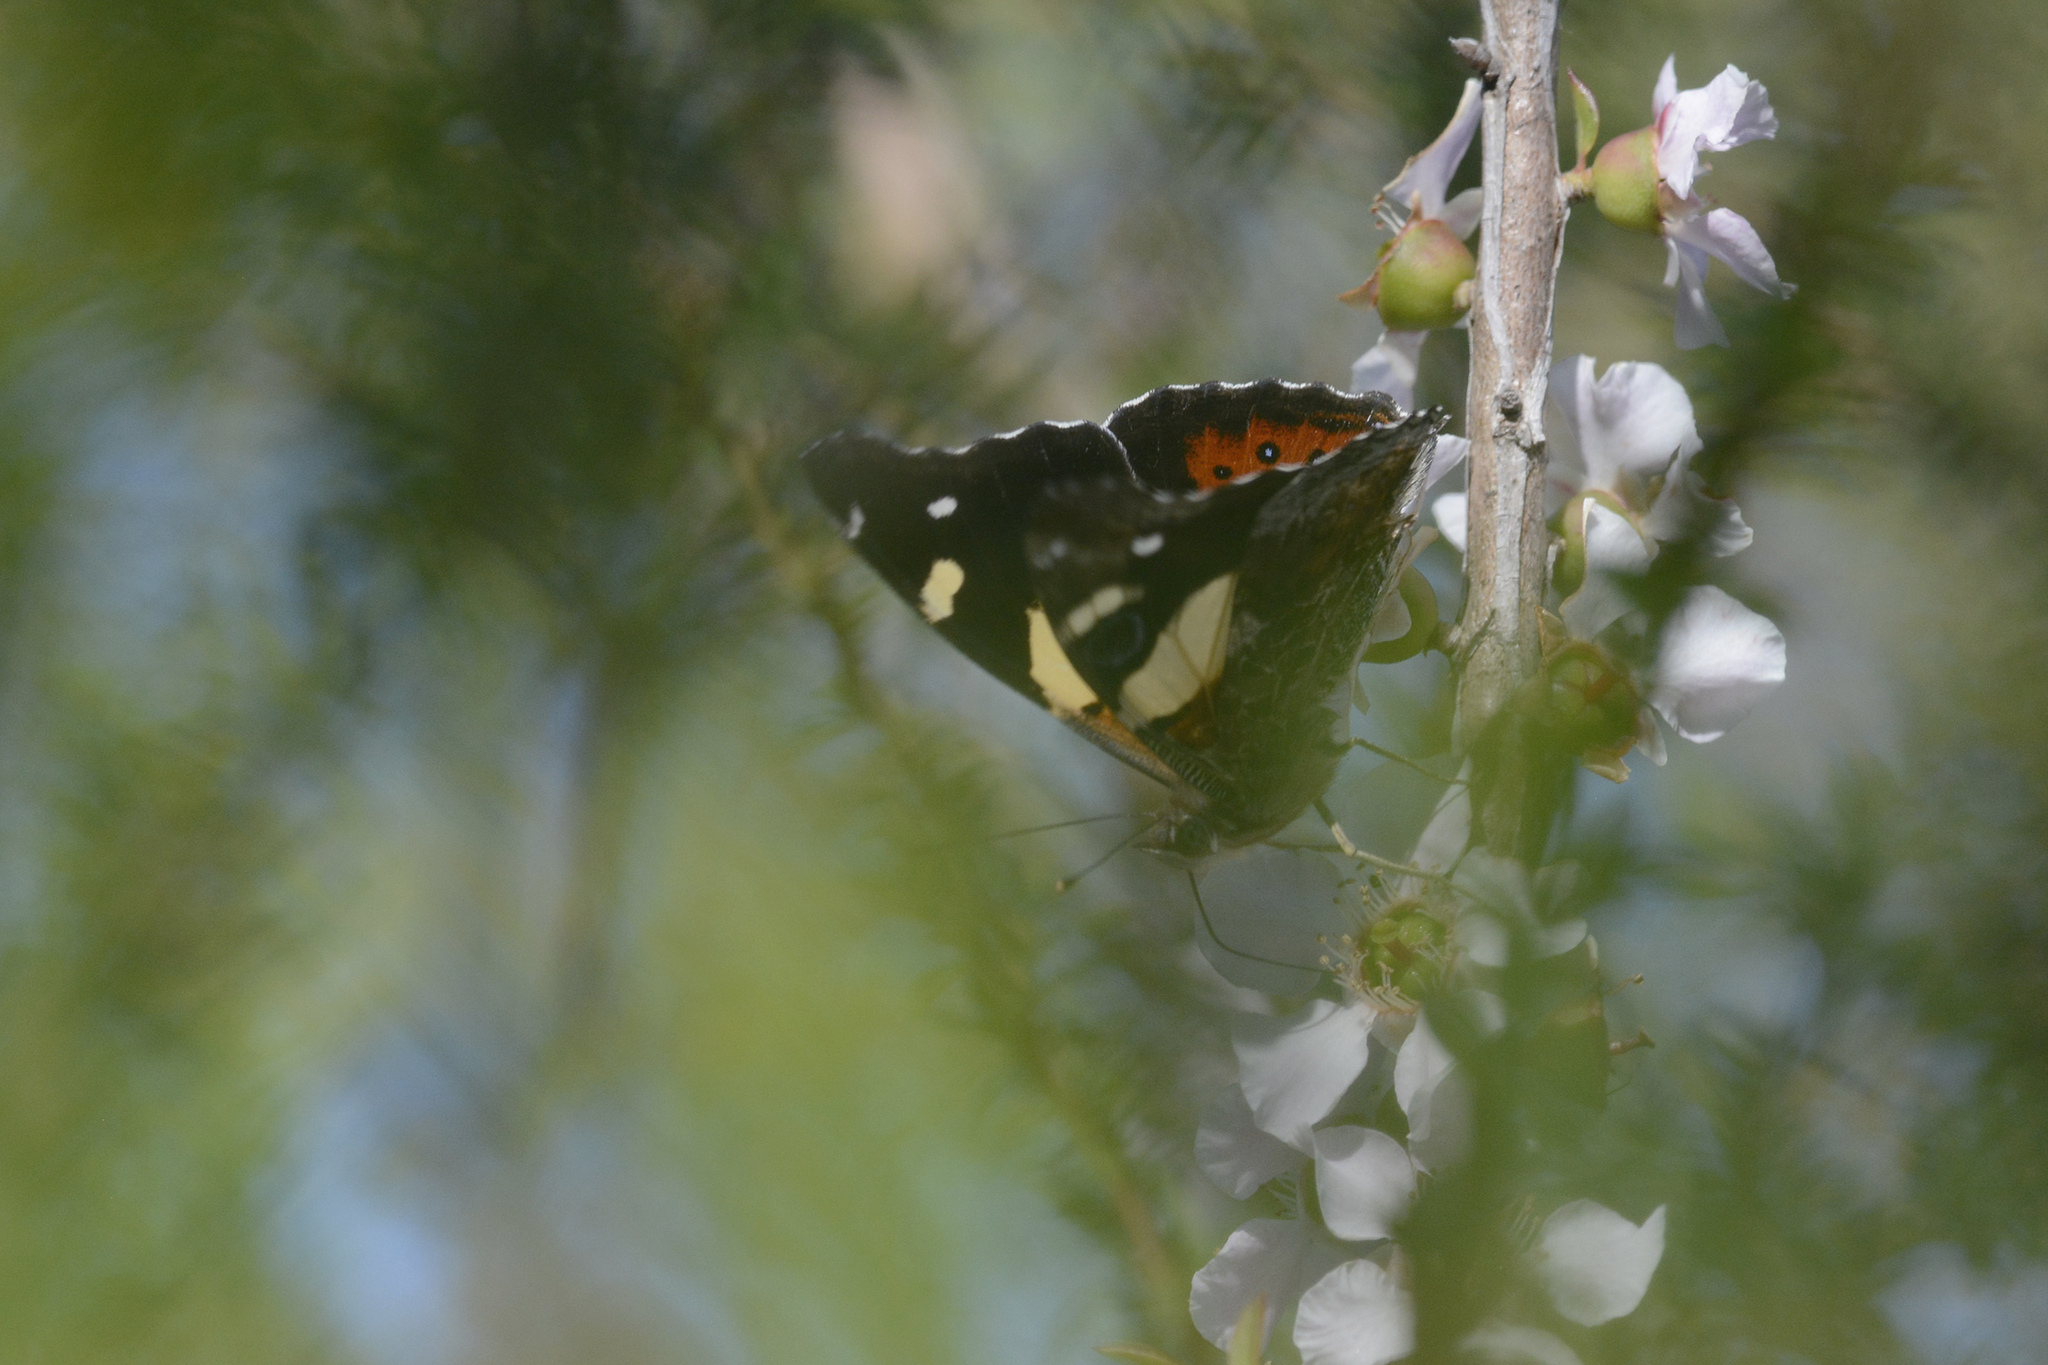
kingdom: Animalia
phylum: Arthropoda
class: Insecta
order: Lepidoptera
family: Nymphalidae
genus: Vanessa
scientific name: Vanessa itea
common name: Yellow admiral
